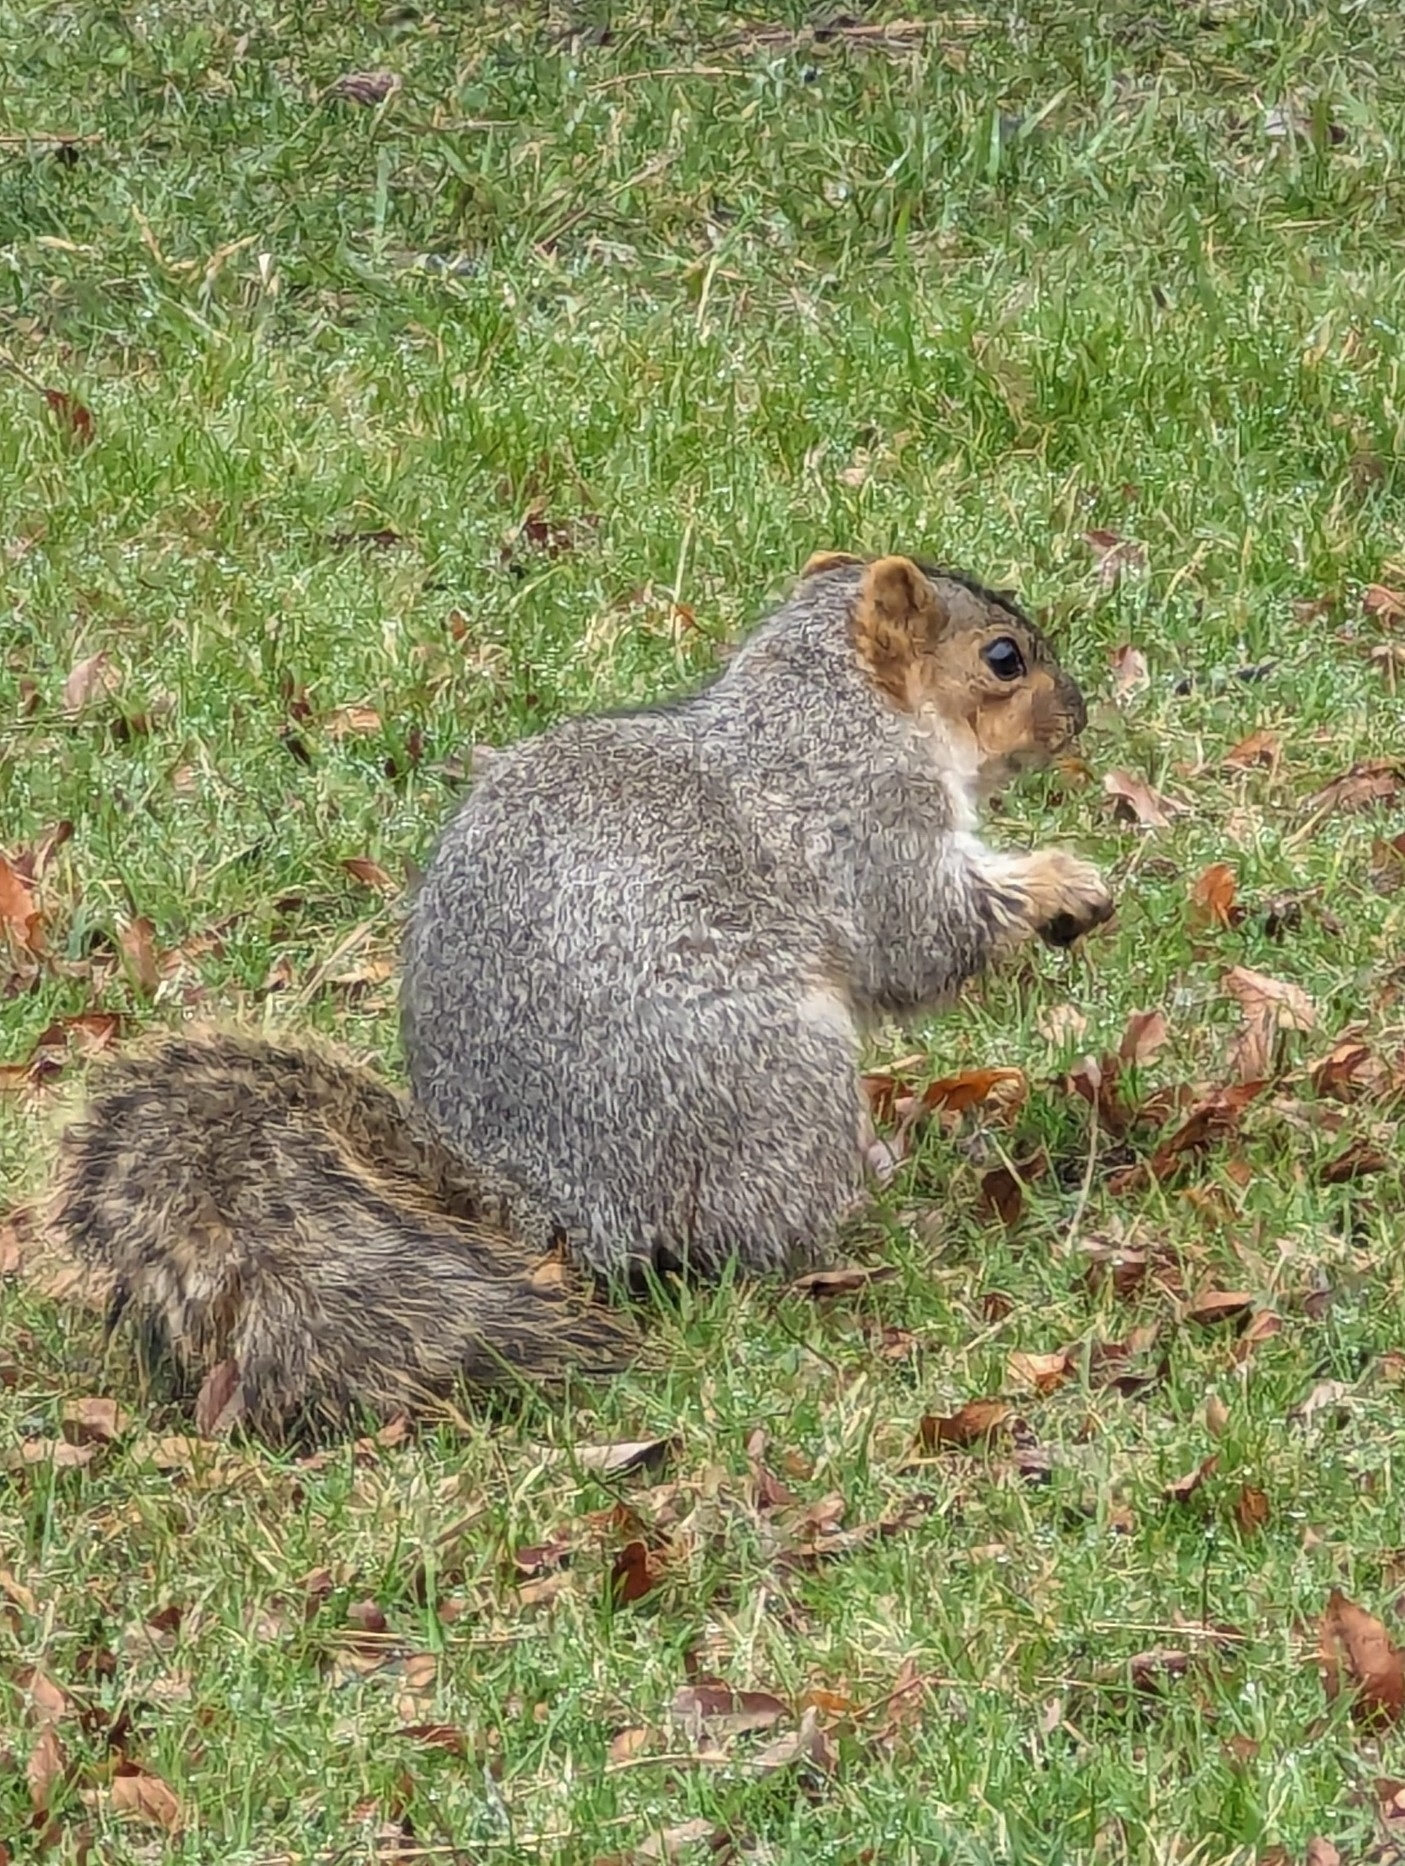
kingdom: Animalia
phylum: Chordata
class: Mammalia
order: Rodentia
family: Sciuridae
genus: Sciurus
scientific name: Sciurus niger
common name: Fox squirrel
